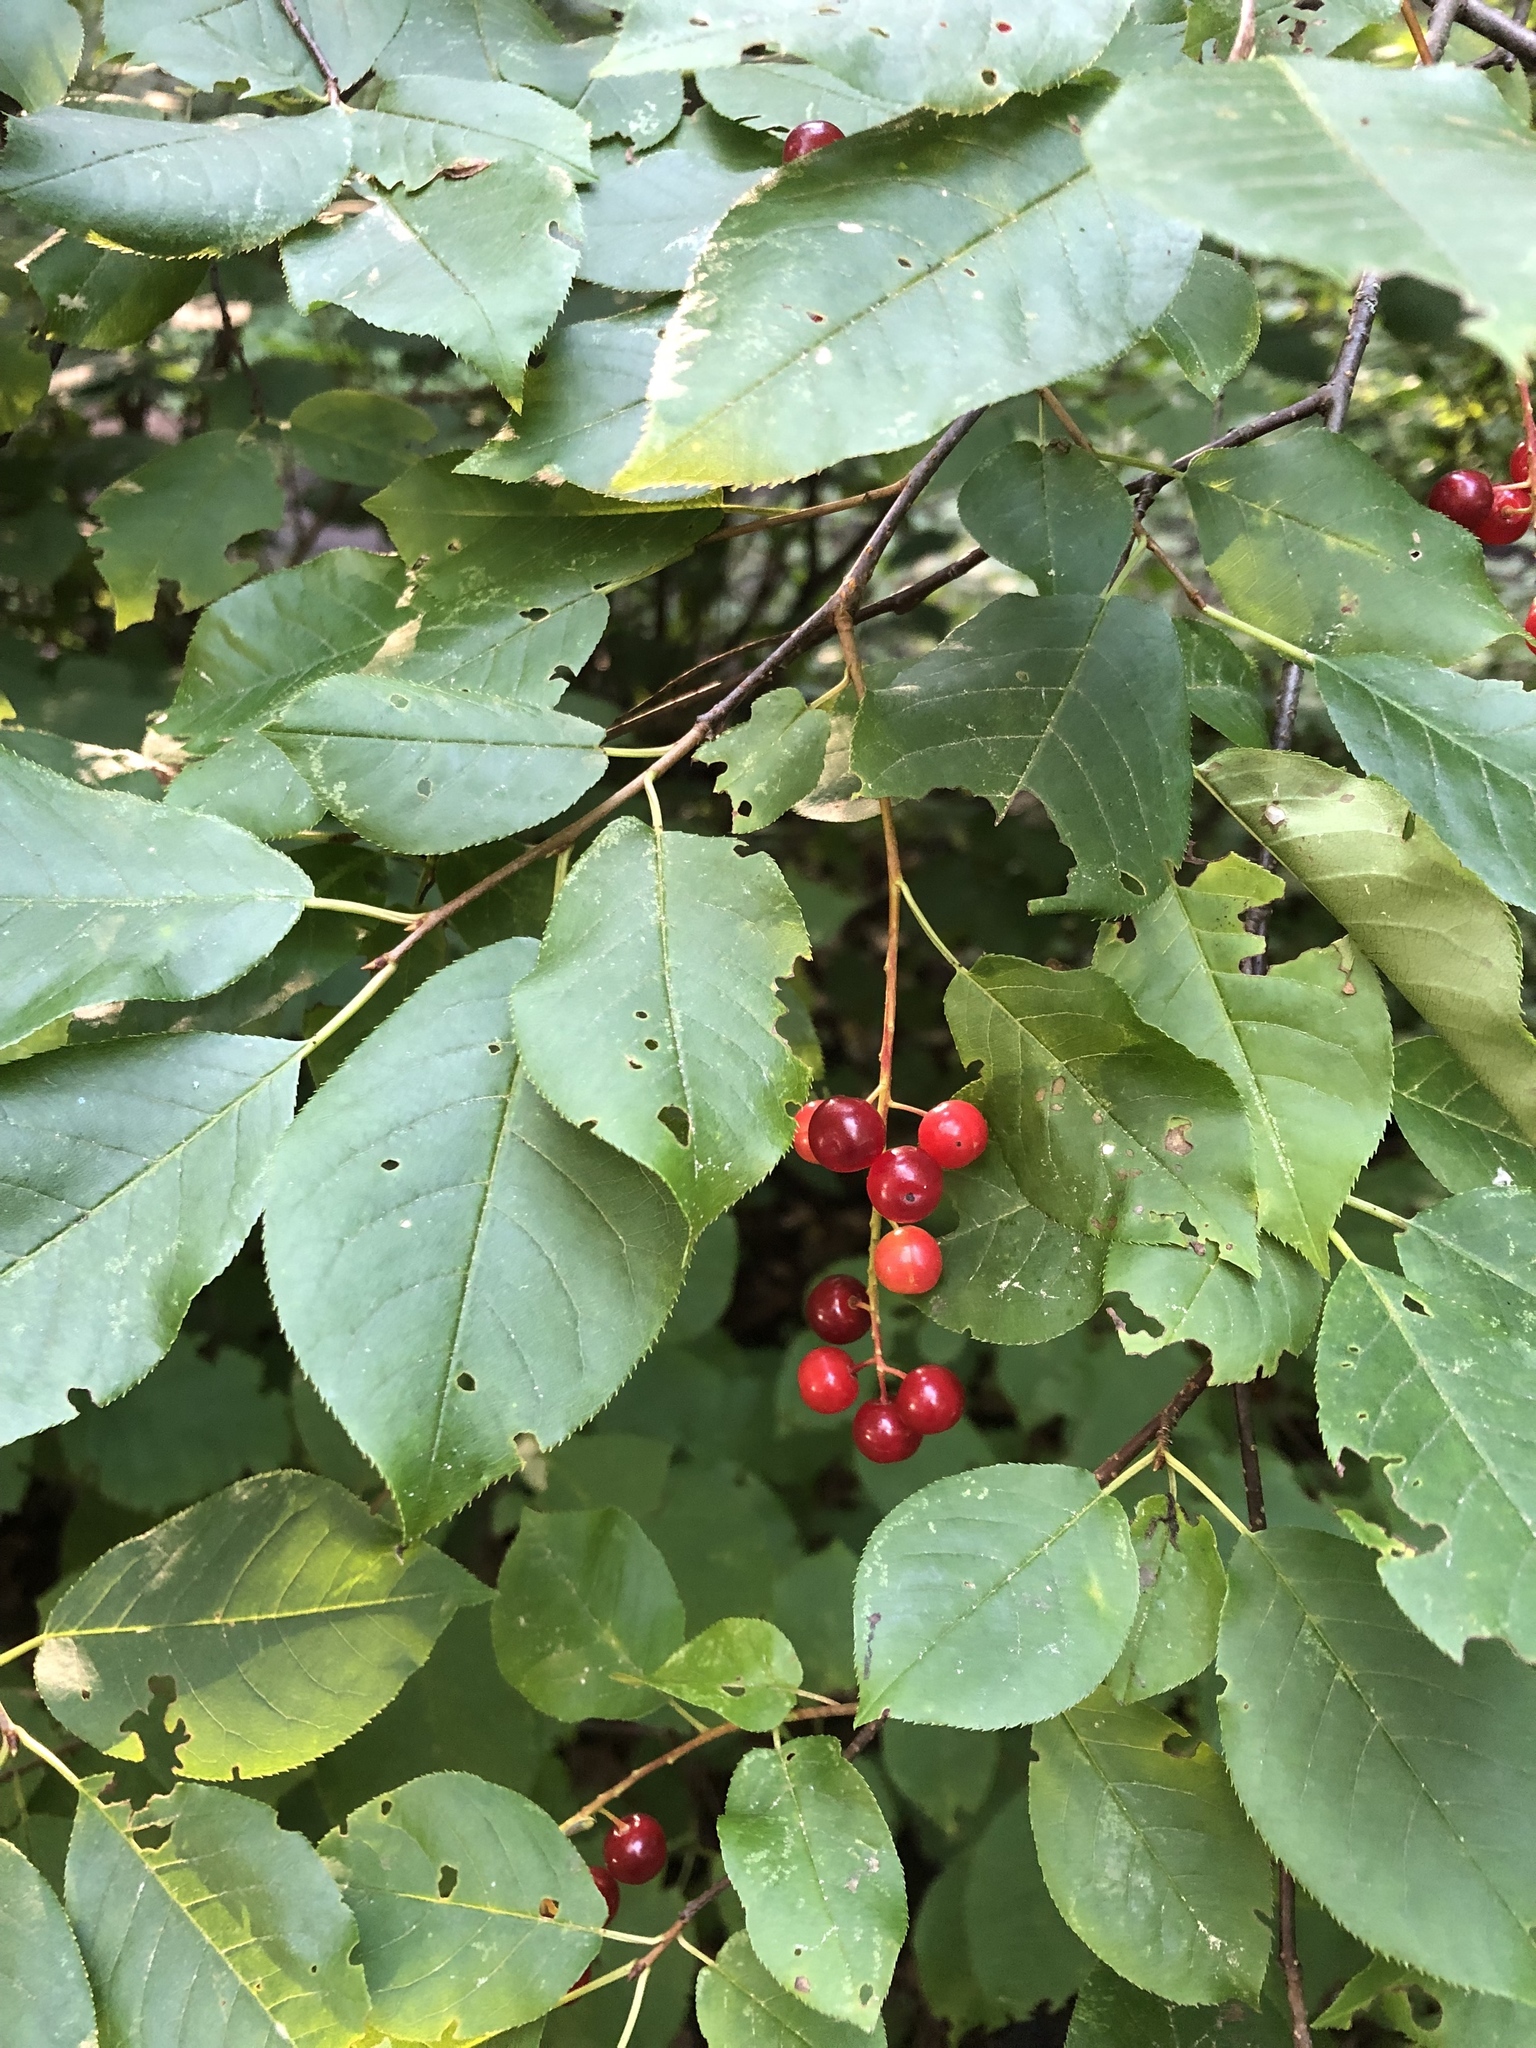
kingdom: Plantae
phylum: Tracheophyta
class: Magnoliopsida
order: Rosales
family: Rosaceae
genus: Prunus
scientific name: Prunus virginiana
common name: Chokecherry
